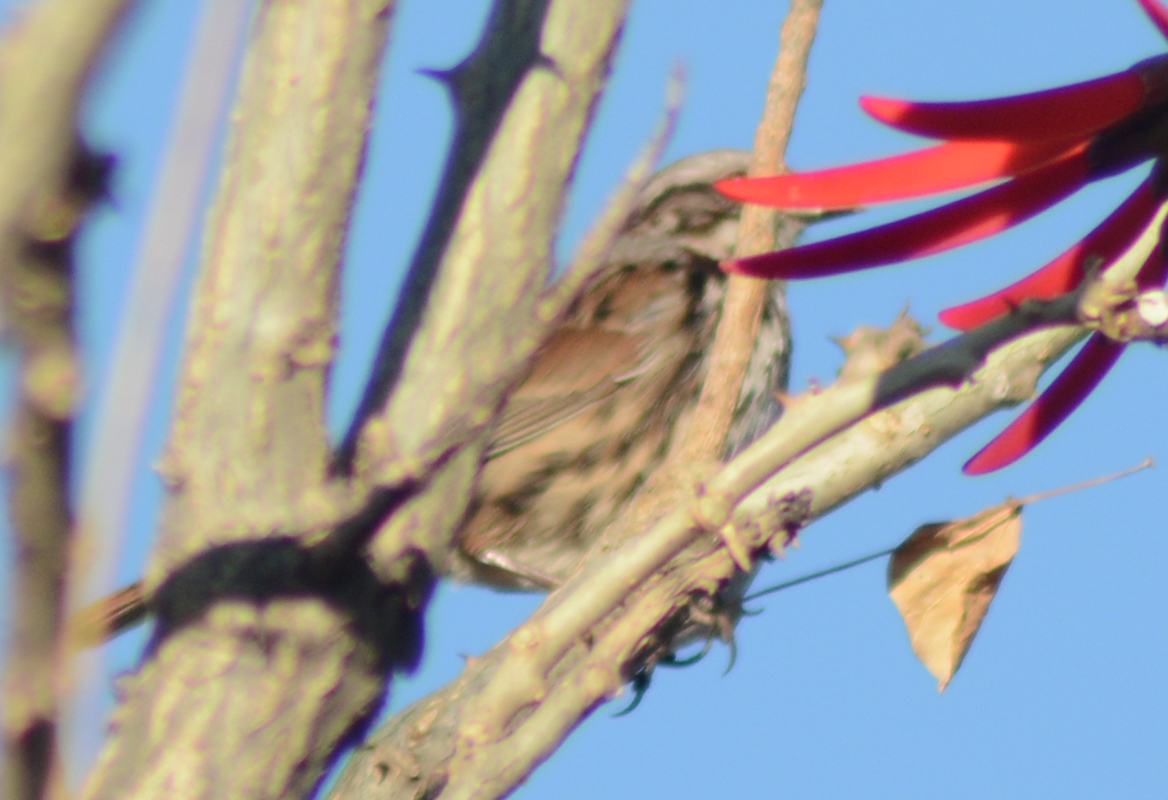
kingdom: Animalia
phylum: Chordata
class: Aves
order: Passeriformes
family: Passerellidae
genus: Melospiza
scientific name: Melospiza melodia
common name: Song sparrow
